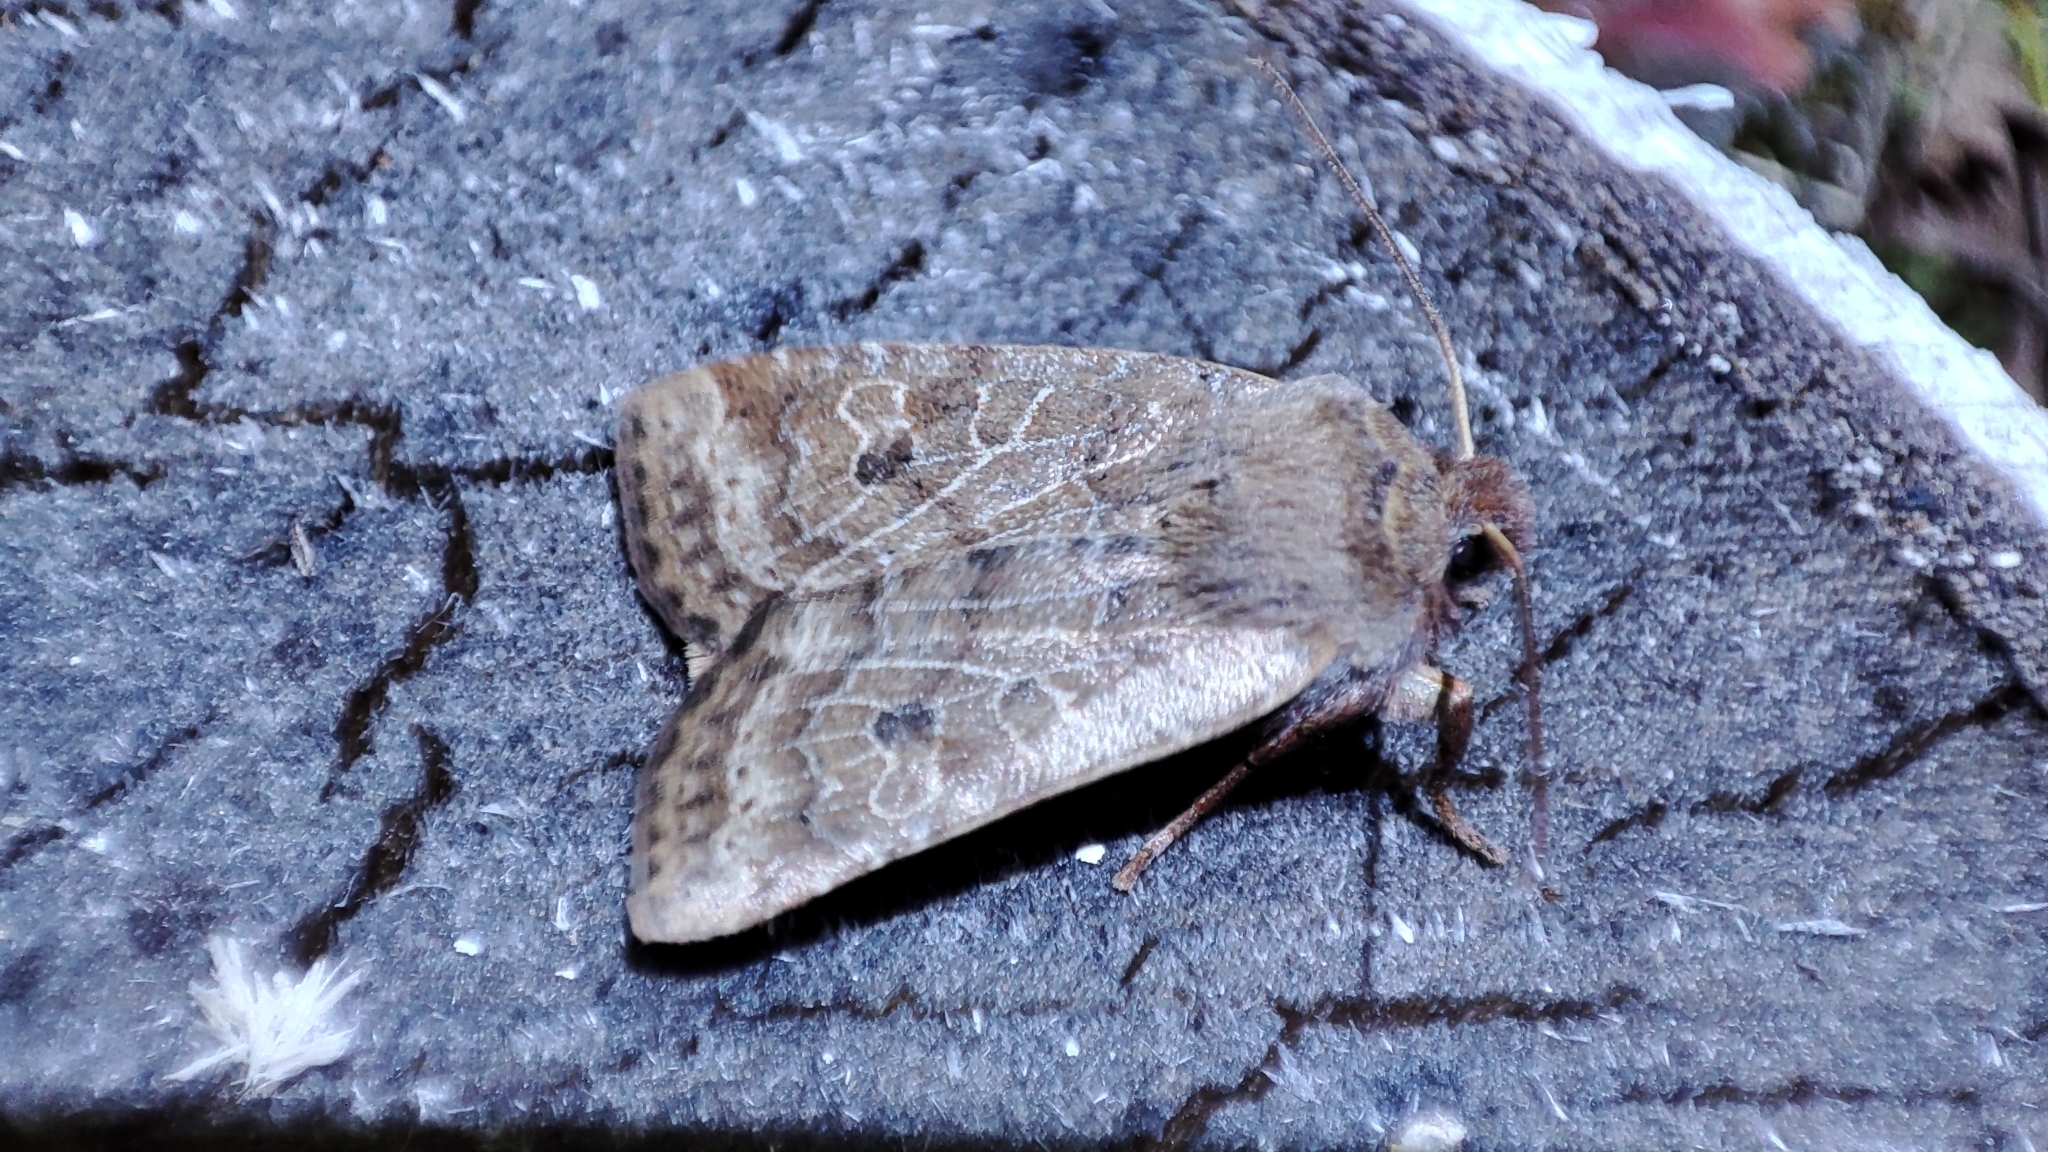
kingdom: Animalia
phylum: Arthropoda
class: Insecta
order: Lepidoptera
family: Noctuidae
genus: Conistra
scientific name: Conistra vaccinii
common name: Chestnut
